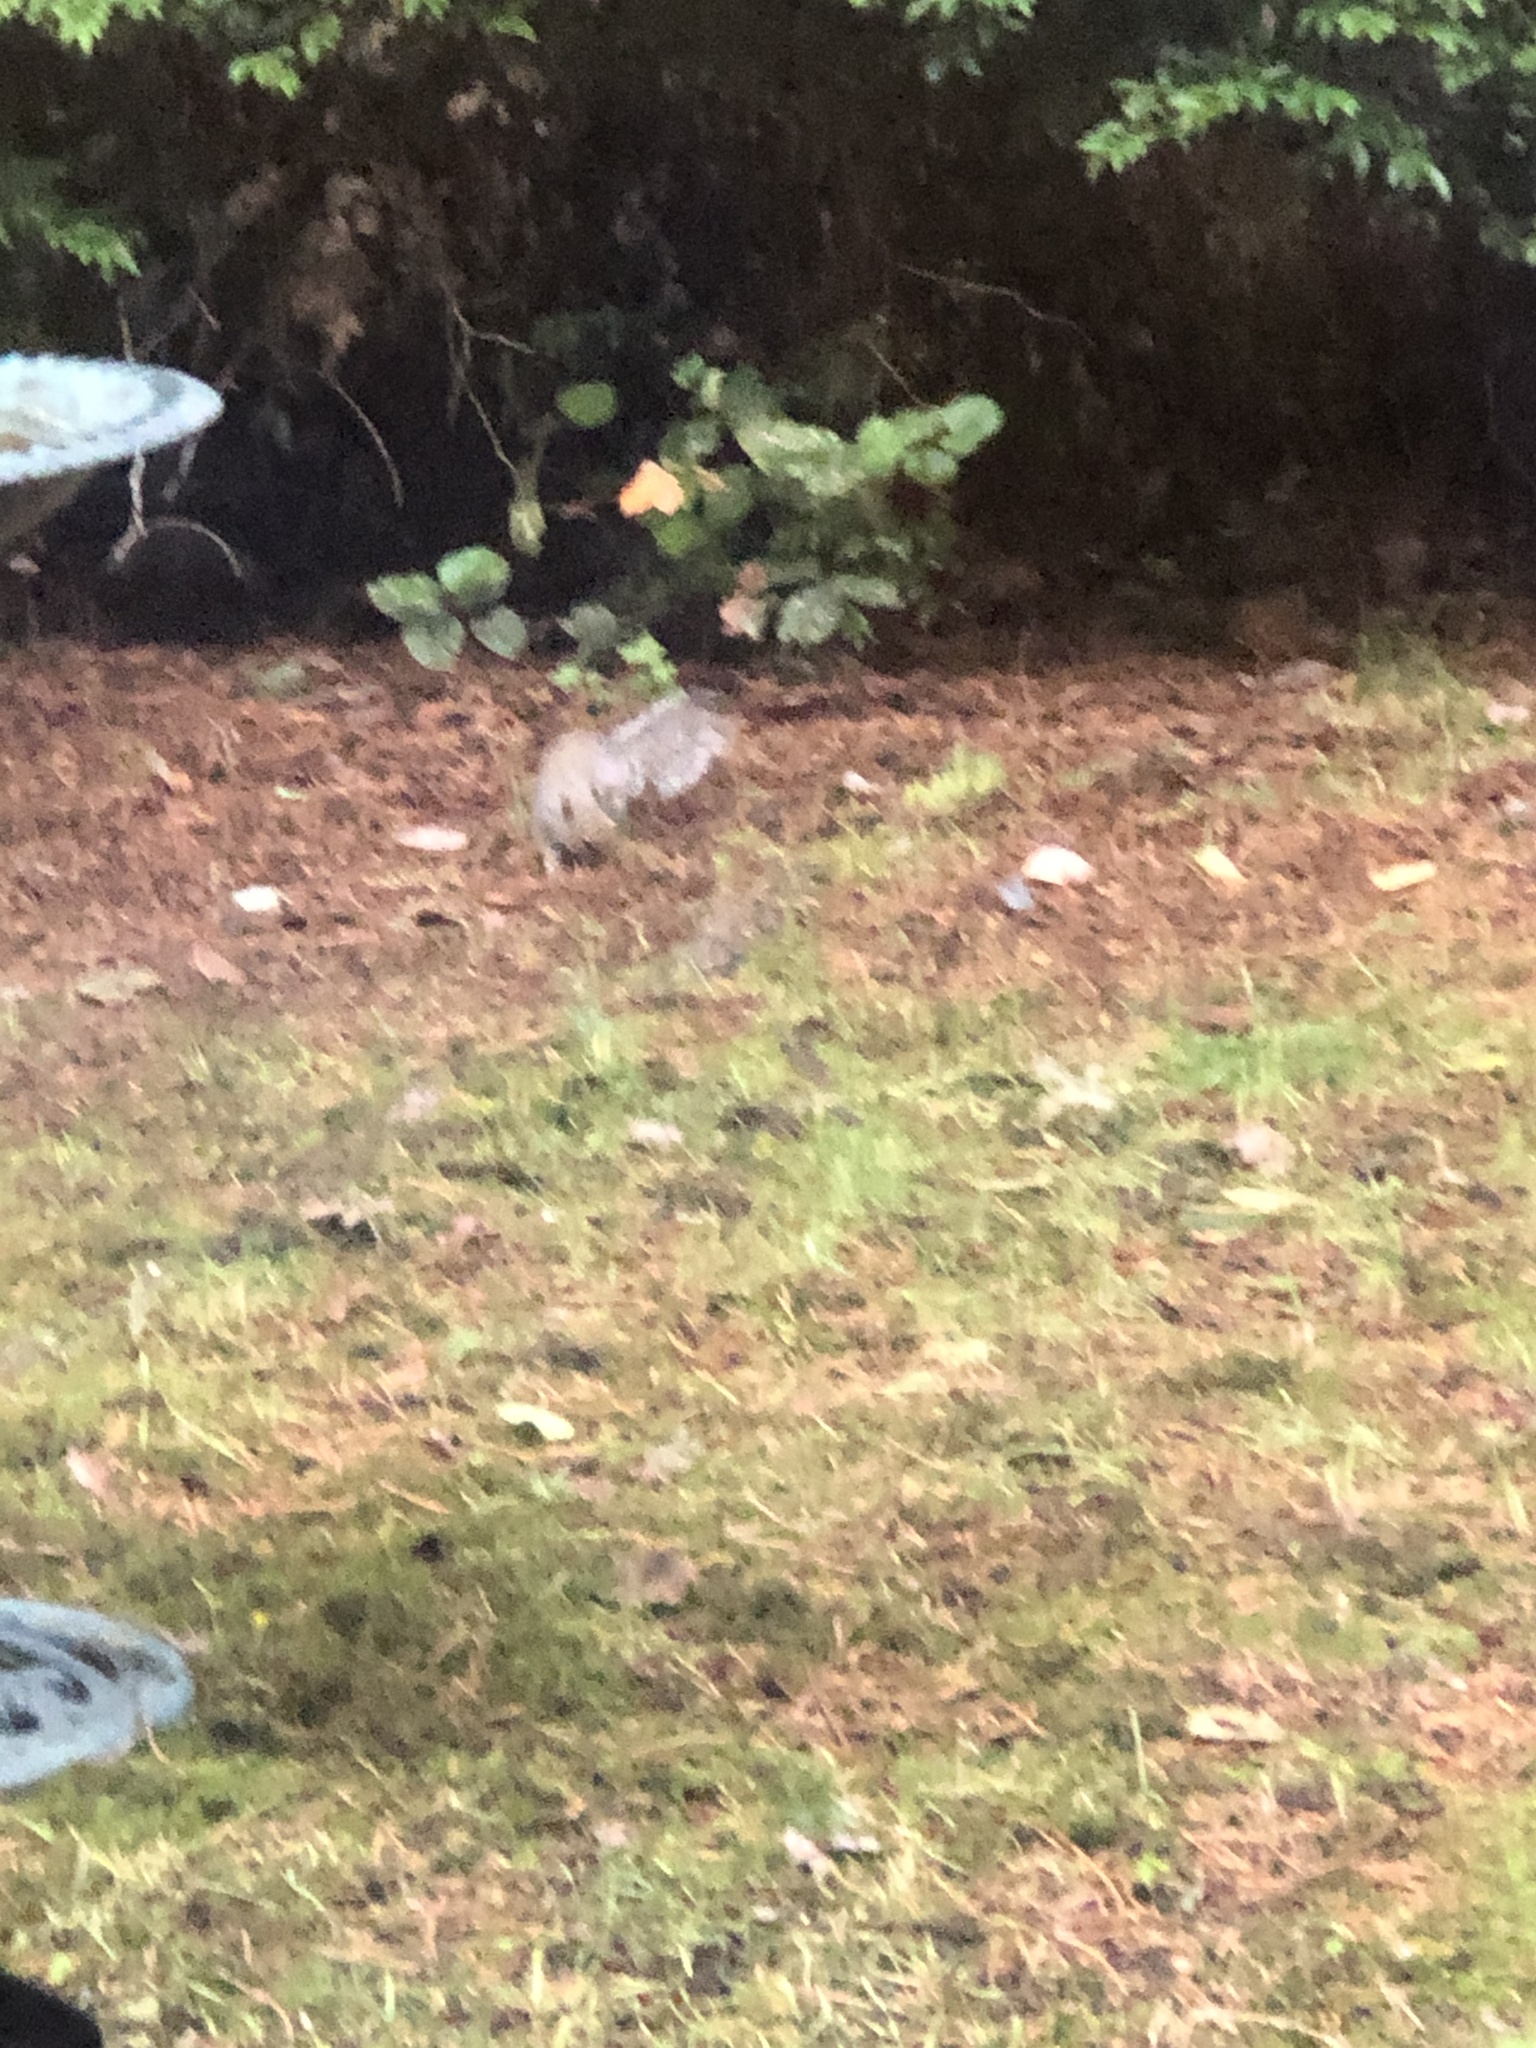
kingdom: Animalia
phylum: Chordata
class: Mammalia
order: Rodentia
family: Sciuridae
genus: Sciurus
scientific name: Sciurus carolinensis
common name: Eastern gray squirrel
